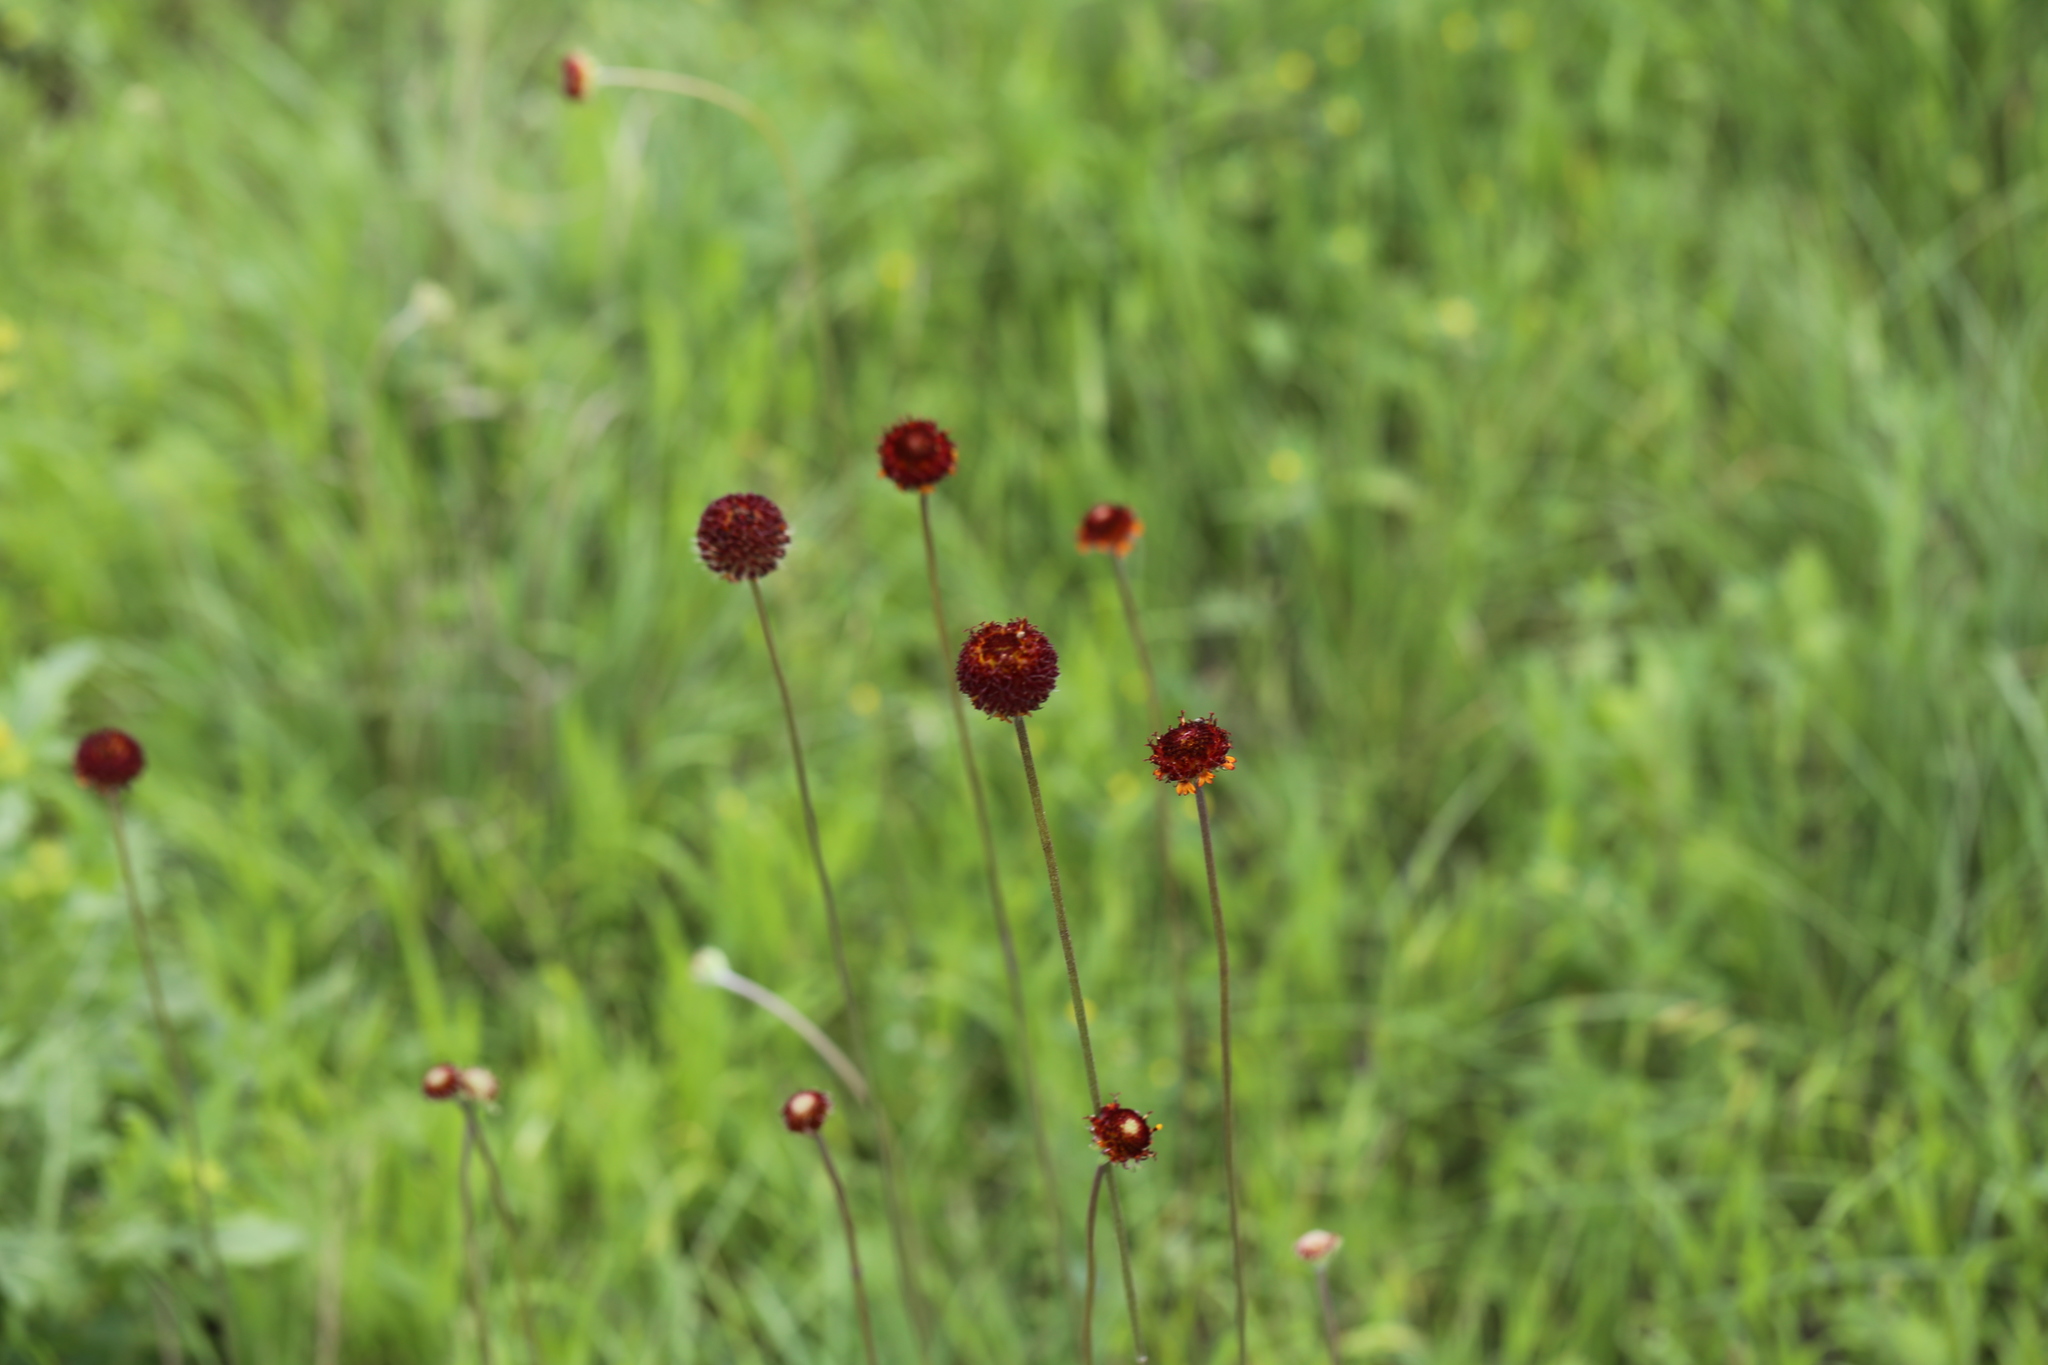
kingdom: Plantae
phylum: Tracheophyta
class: Magnoliopsida
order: Asterales
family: Asteraceae
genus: Gaillardia
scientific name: Gaillardia suavis
